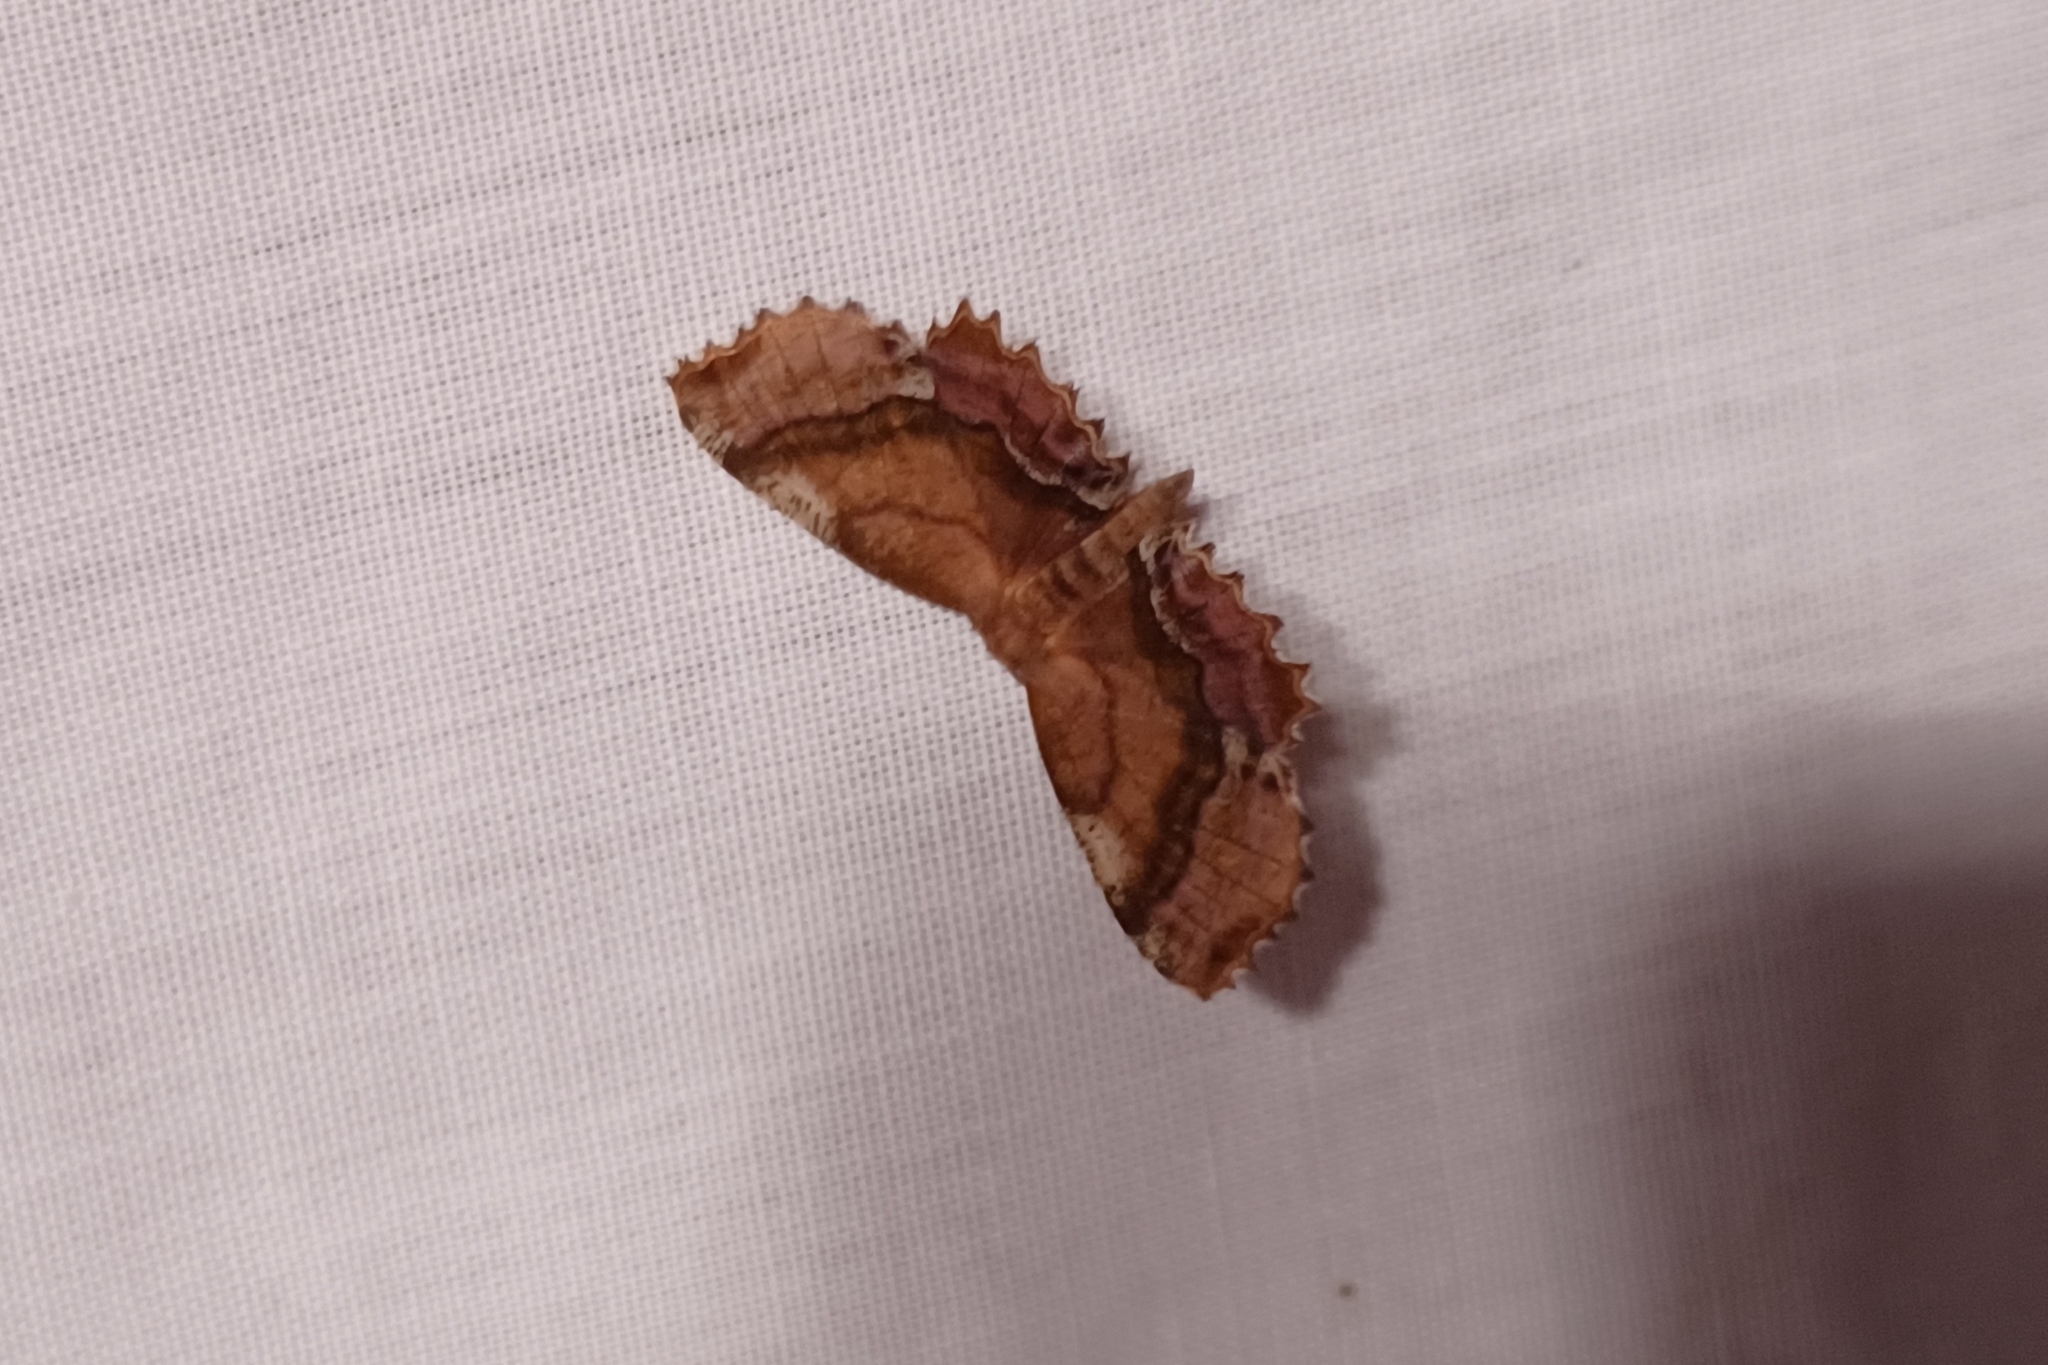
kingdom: Animalia
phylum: Arthropoda
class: Insecta
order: Lepidoptera
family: Geometridae
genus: Cepphis
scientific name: Cepphis armataria
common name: Scallop moth
